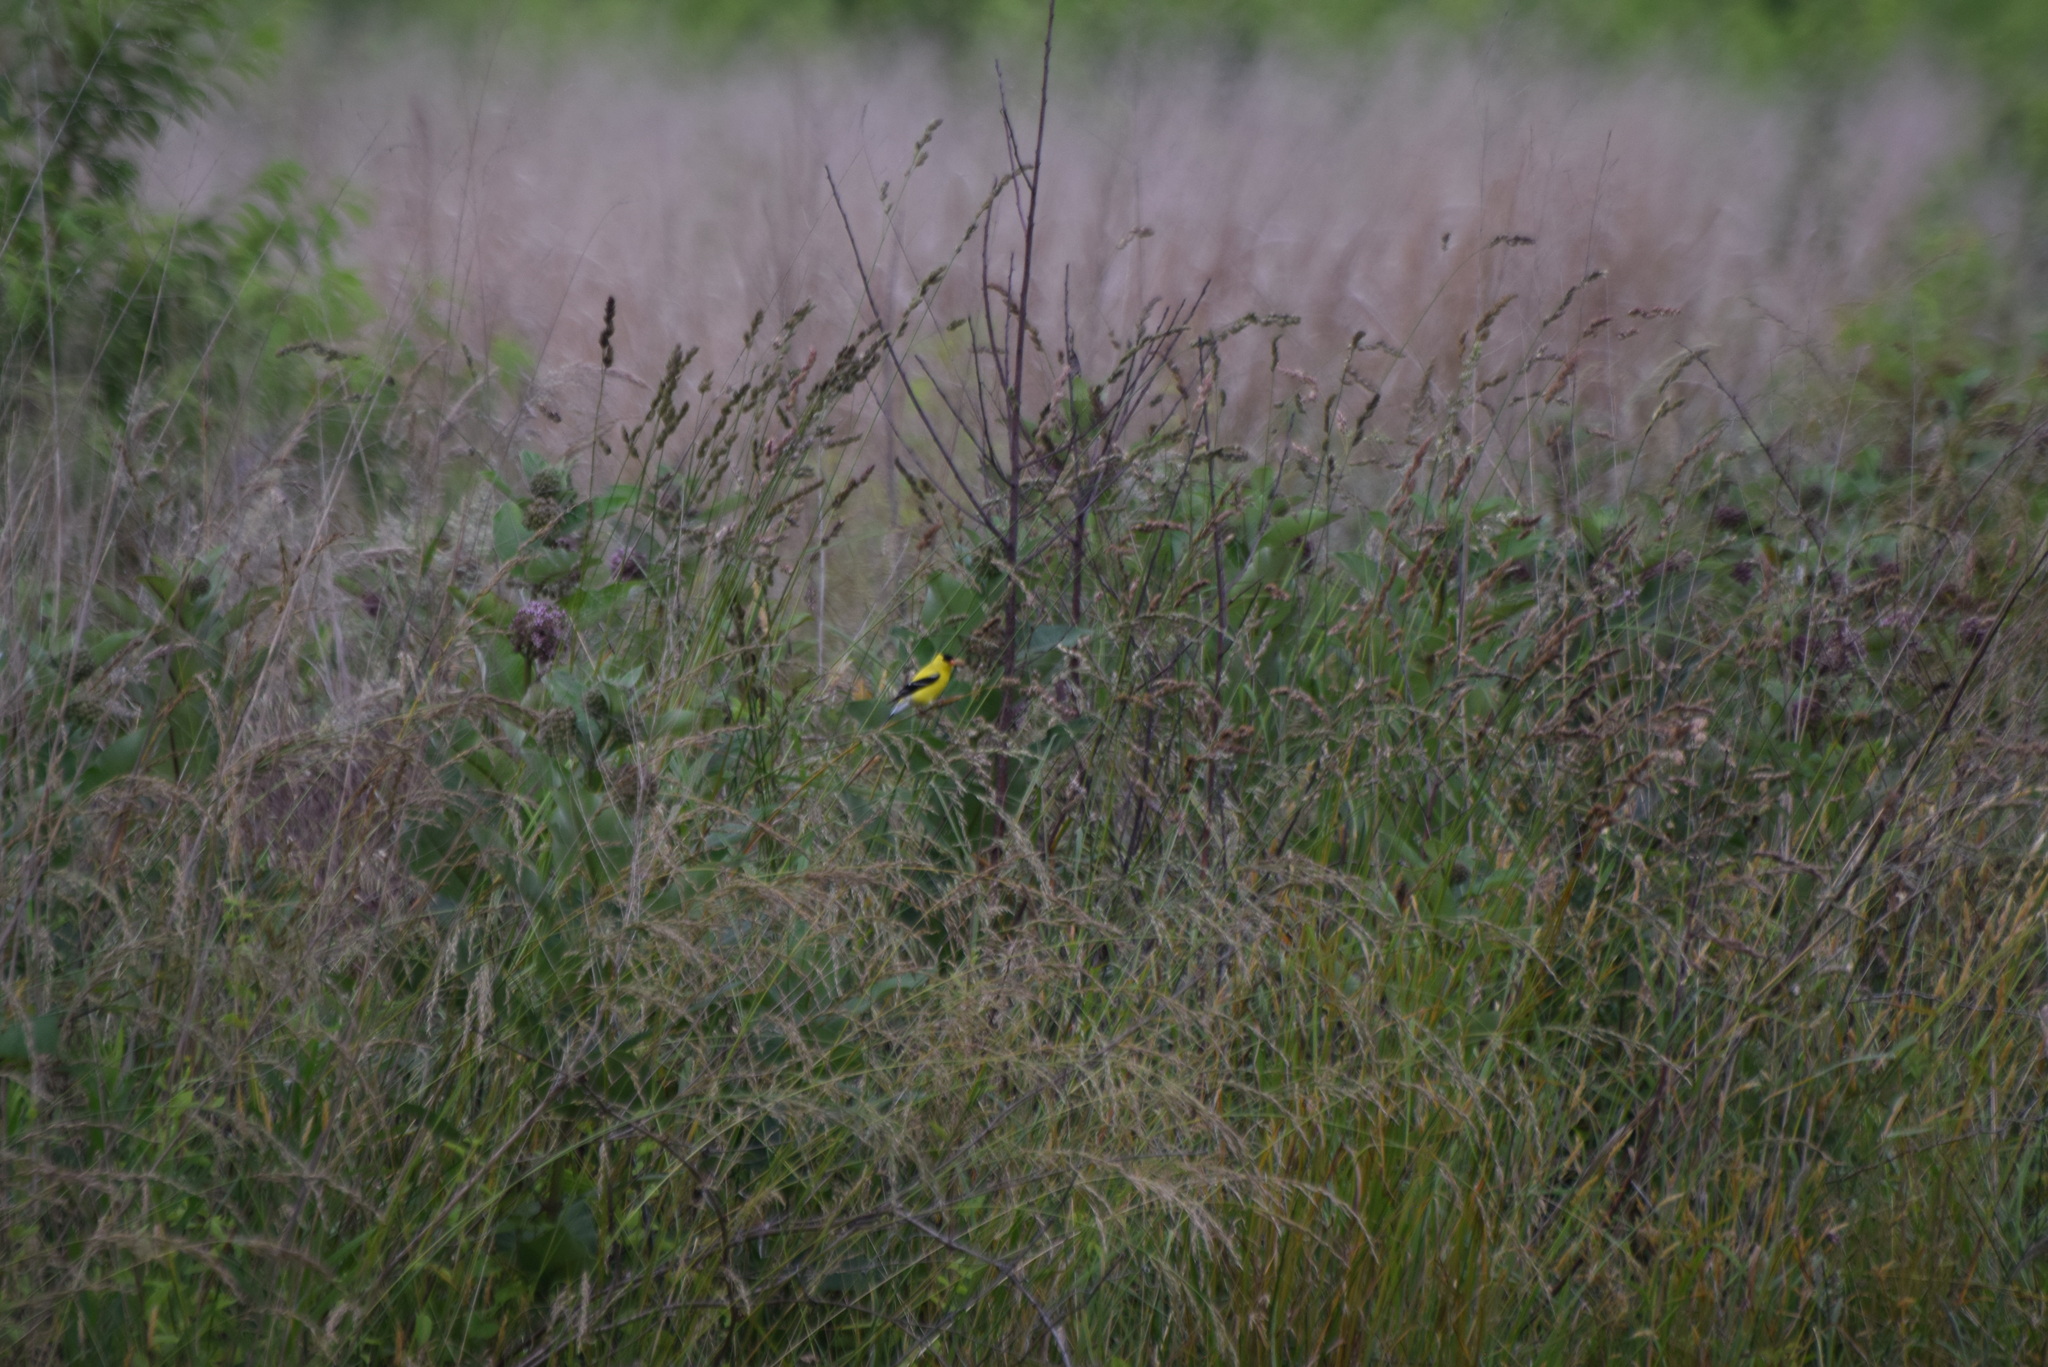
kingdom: Animalia
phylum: Chordata
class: Aves
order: Passeriformes
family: Fringillidae
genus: Spinus
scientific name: Spinus tristis
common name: American goldfinch
